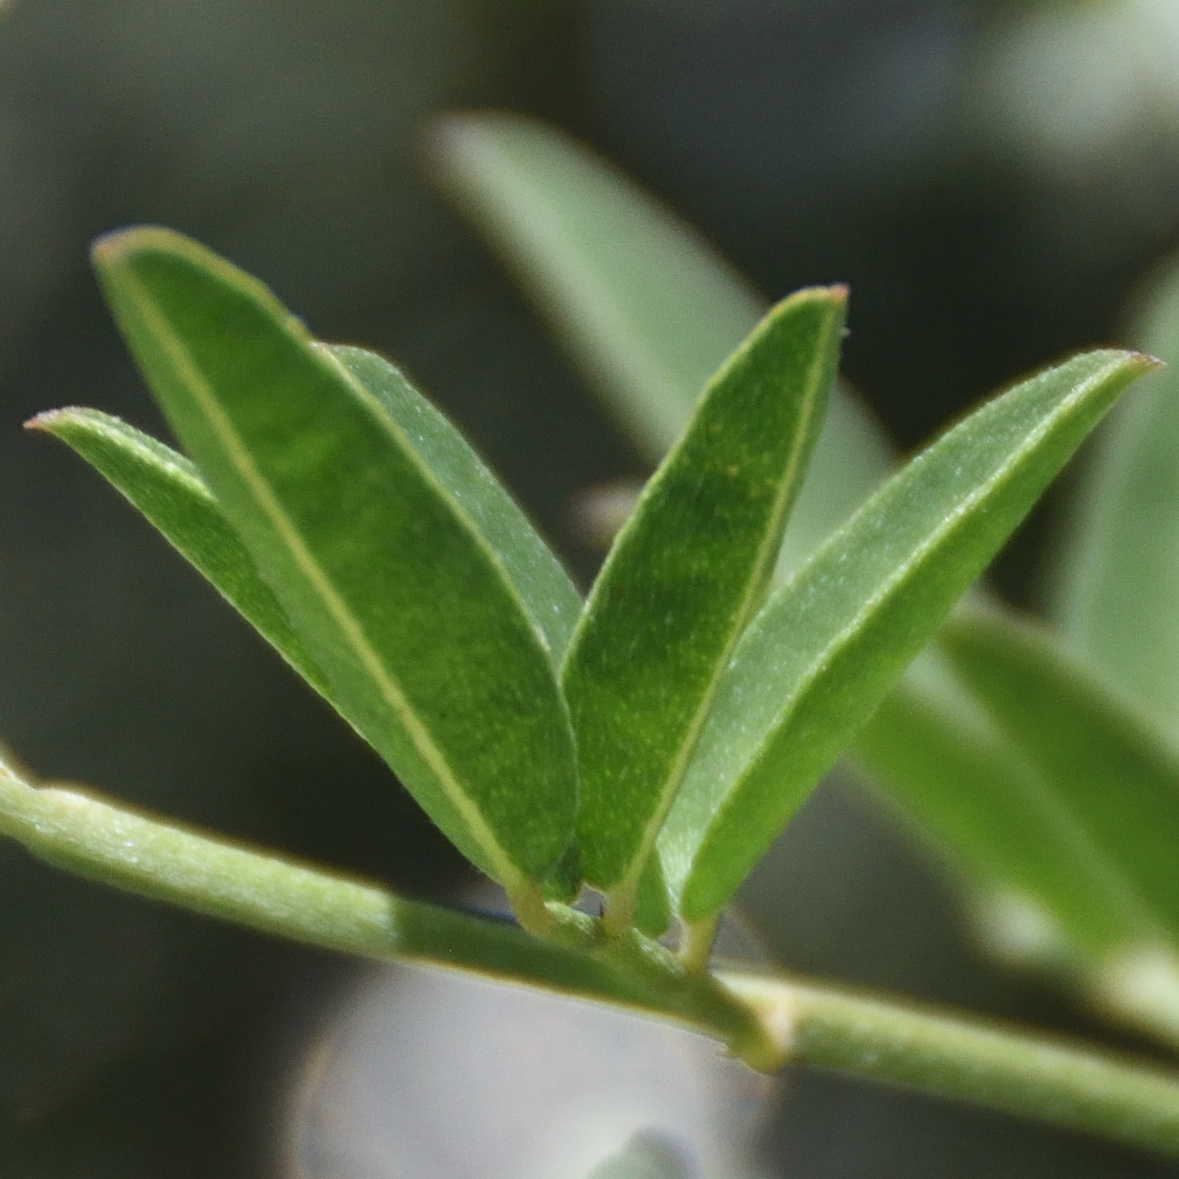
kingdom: Plantae
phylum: Tracheophyta
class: Magnoliopsida
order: Fabales
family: Fabaceae
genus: Indigofera
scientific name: Indigofera disticha
